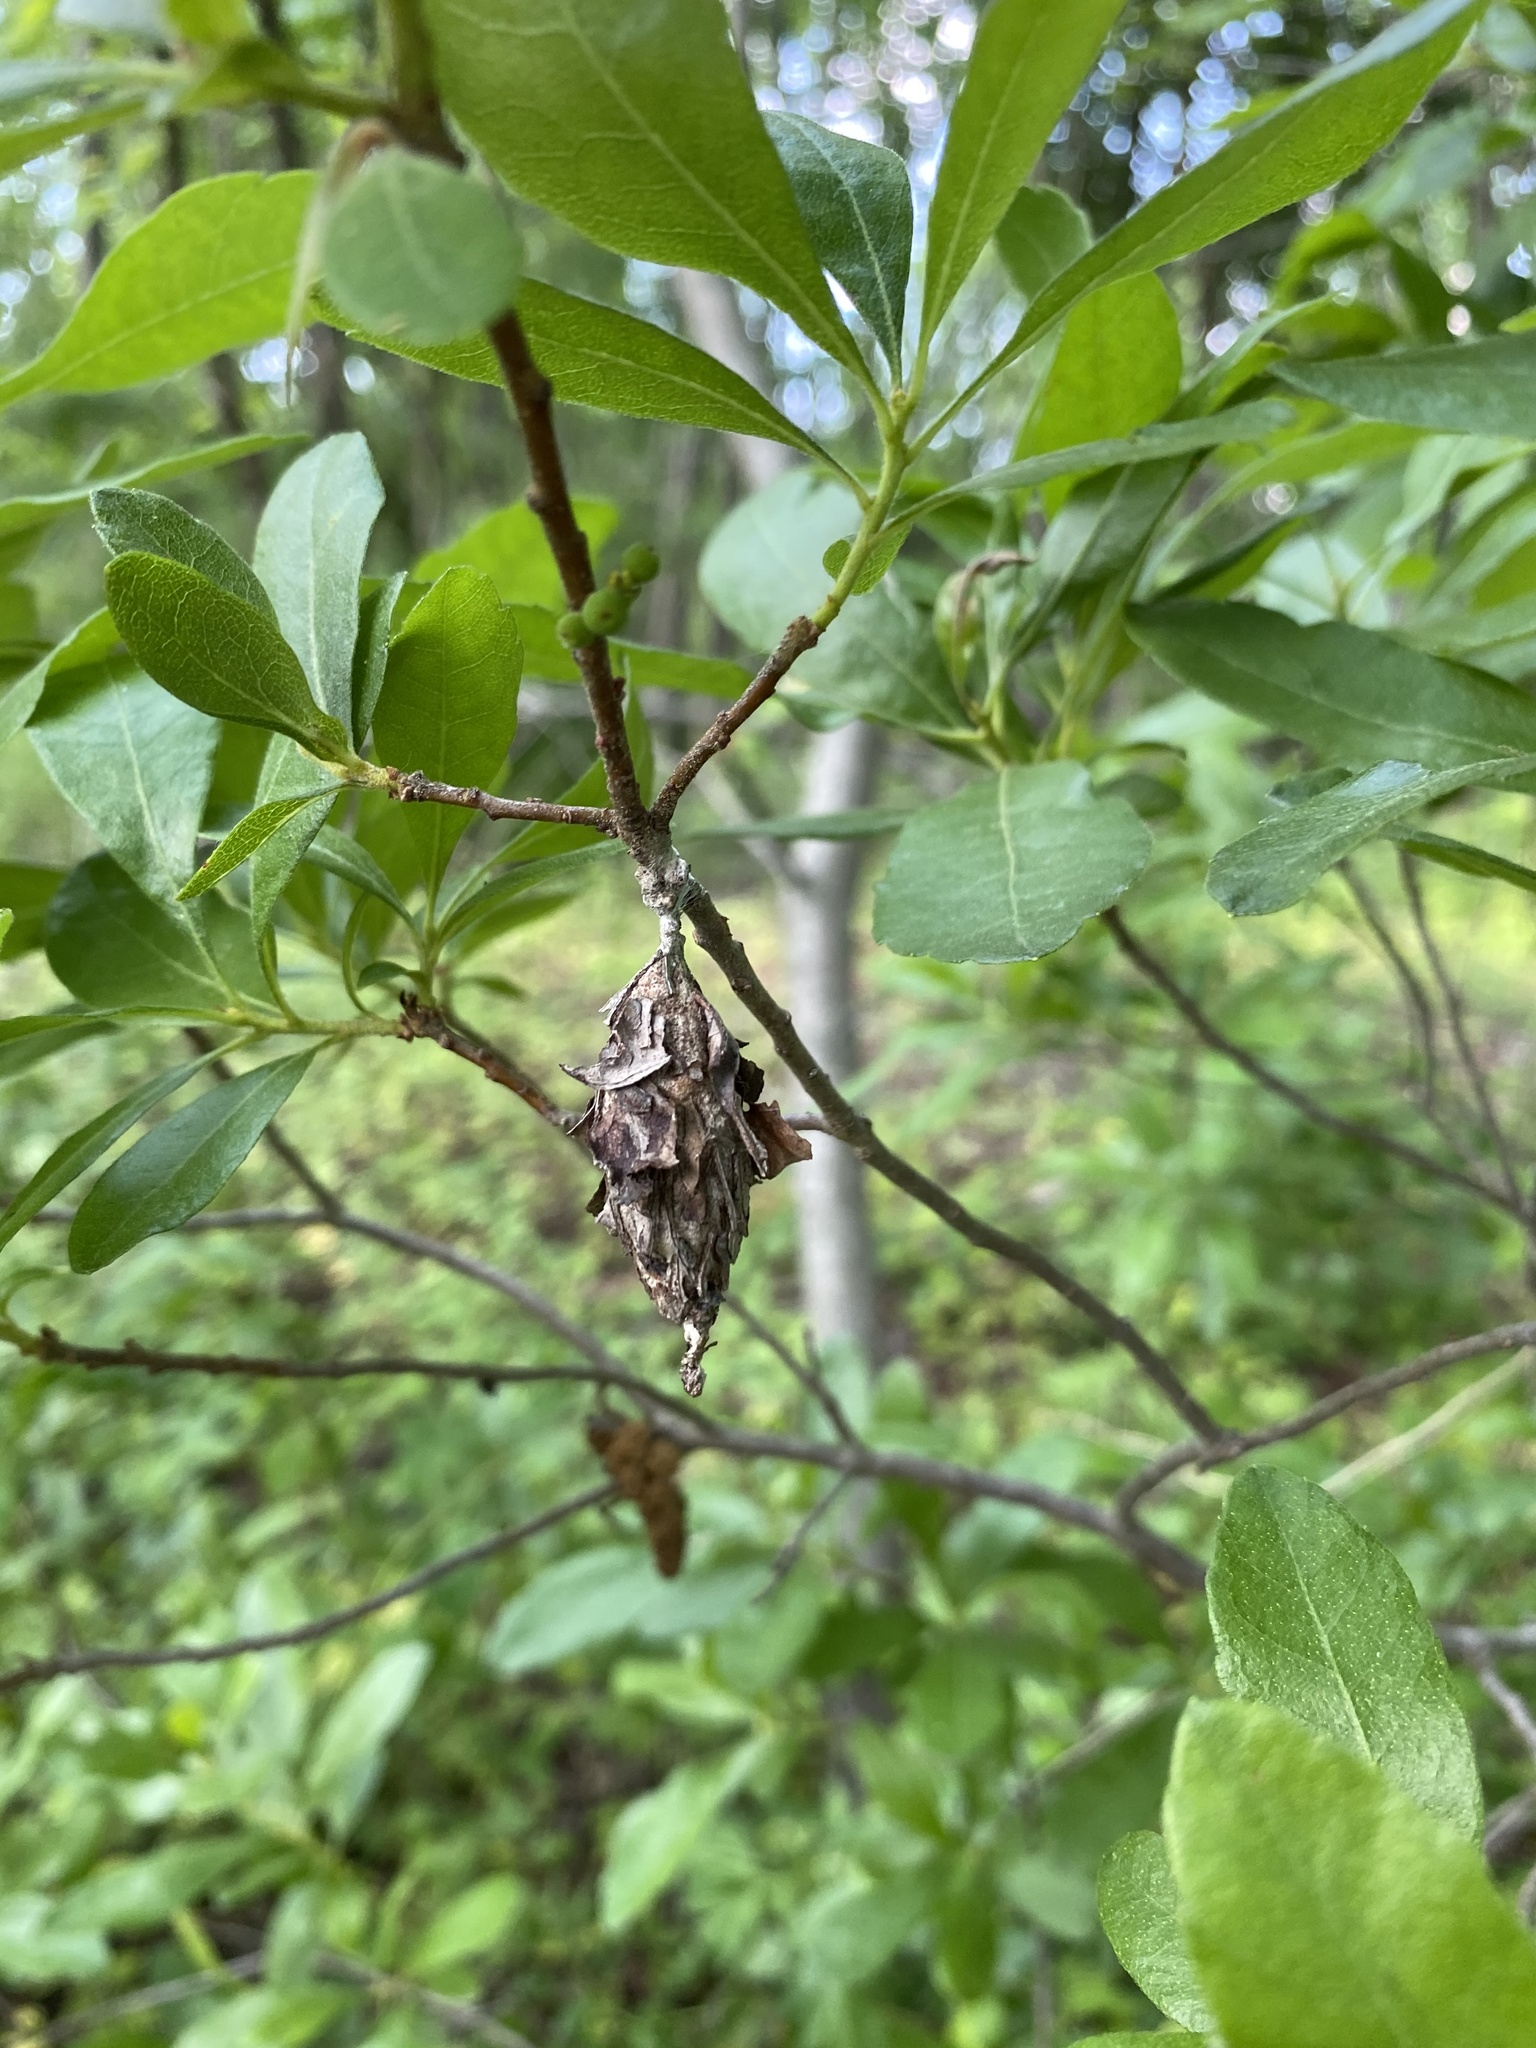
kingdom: Animalia
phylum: Arthropoda
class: Insecta
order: Lepidoptera
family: Psychidae
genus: Thyridopteryx
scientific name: Thyridopteryx ephemeraeformis
